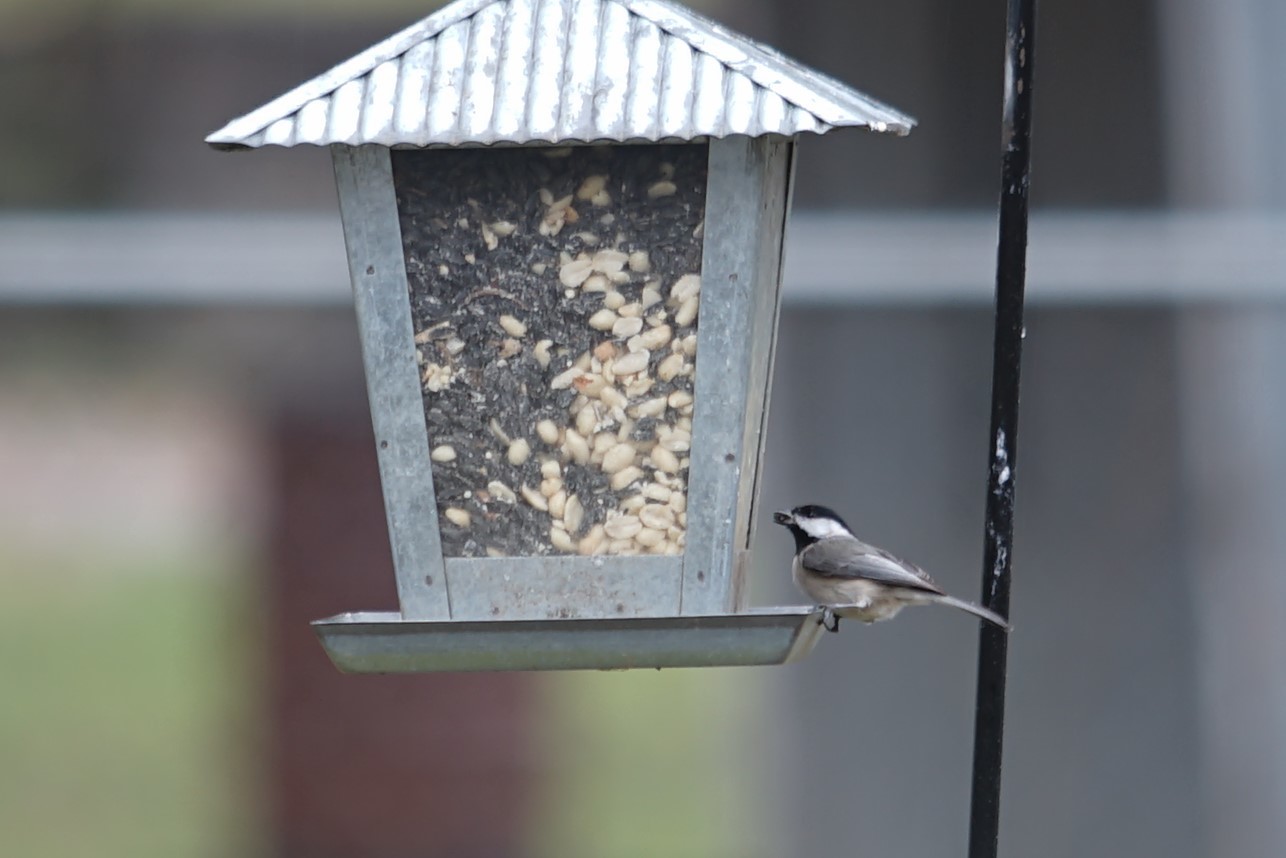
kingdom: Animalia
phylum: Chordata
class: Aves
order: Passeriformes
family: Paridae
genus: Poecile
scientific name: Poecile carolinensis
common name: Carolina chickadee
